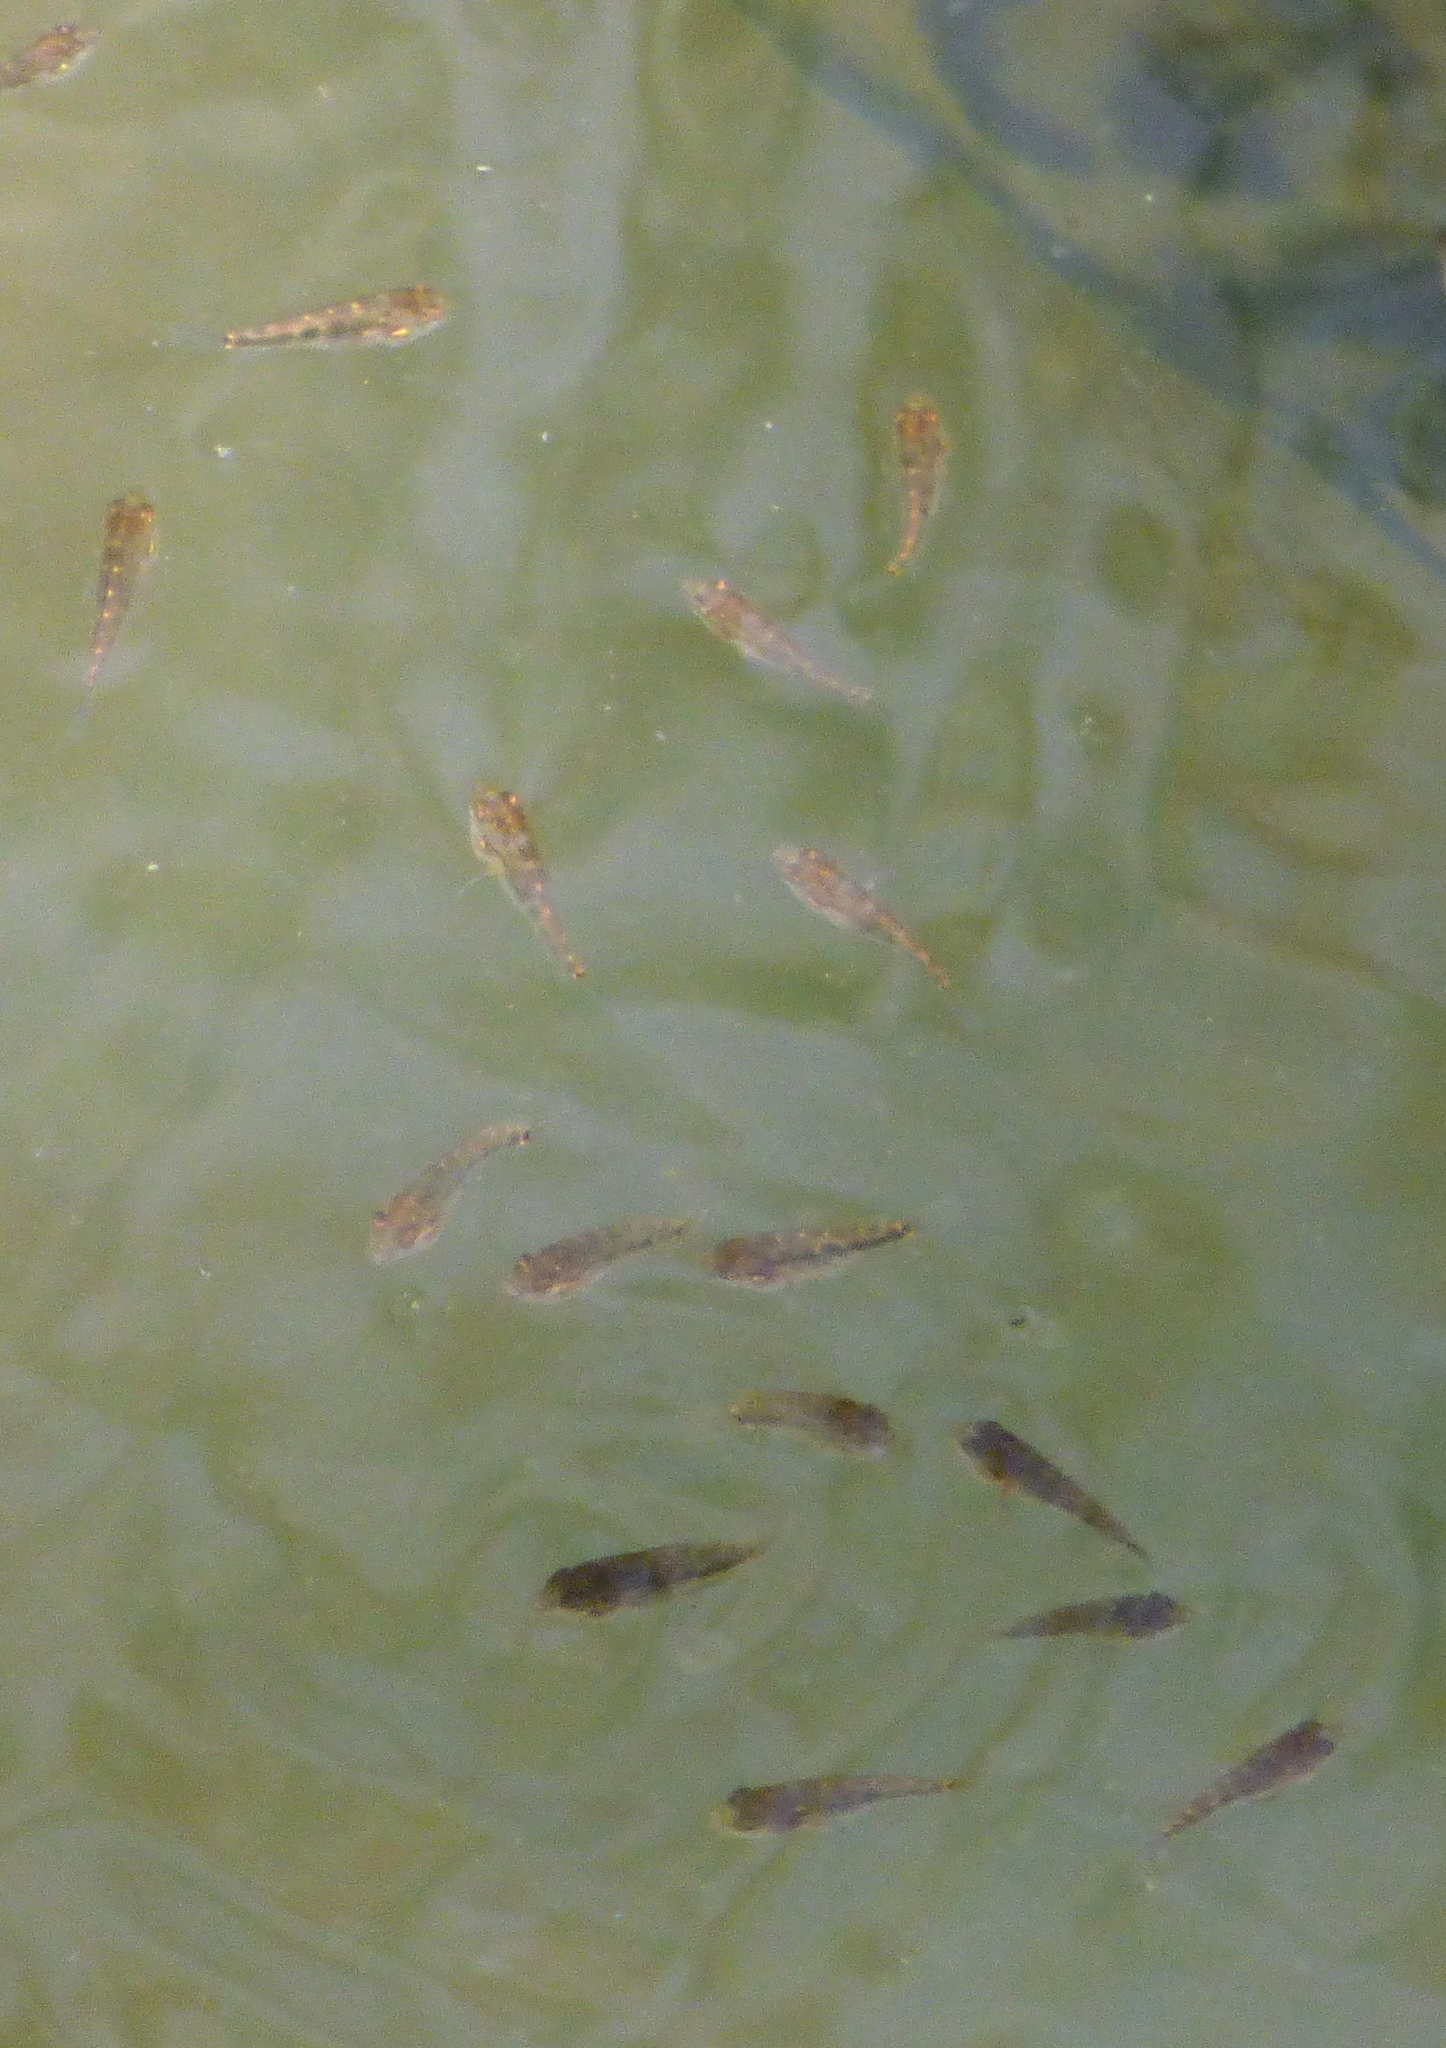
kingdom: Animalia
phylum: Chordata
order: Perciformes
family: Cichlidae
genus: Australoheros
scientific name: Australoheros facetus
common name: Chameleon cichlid
